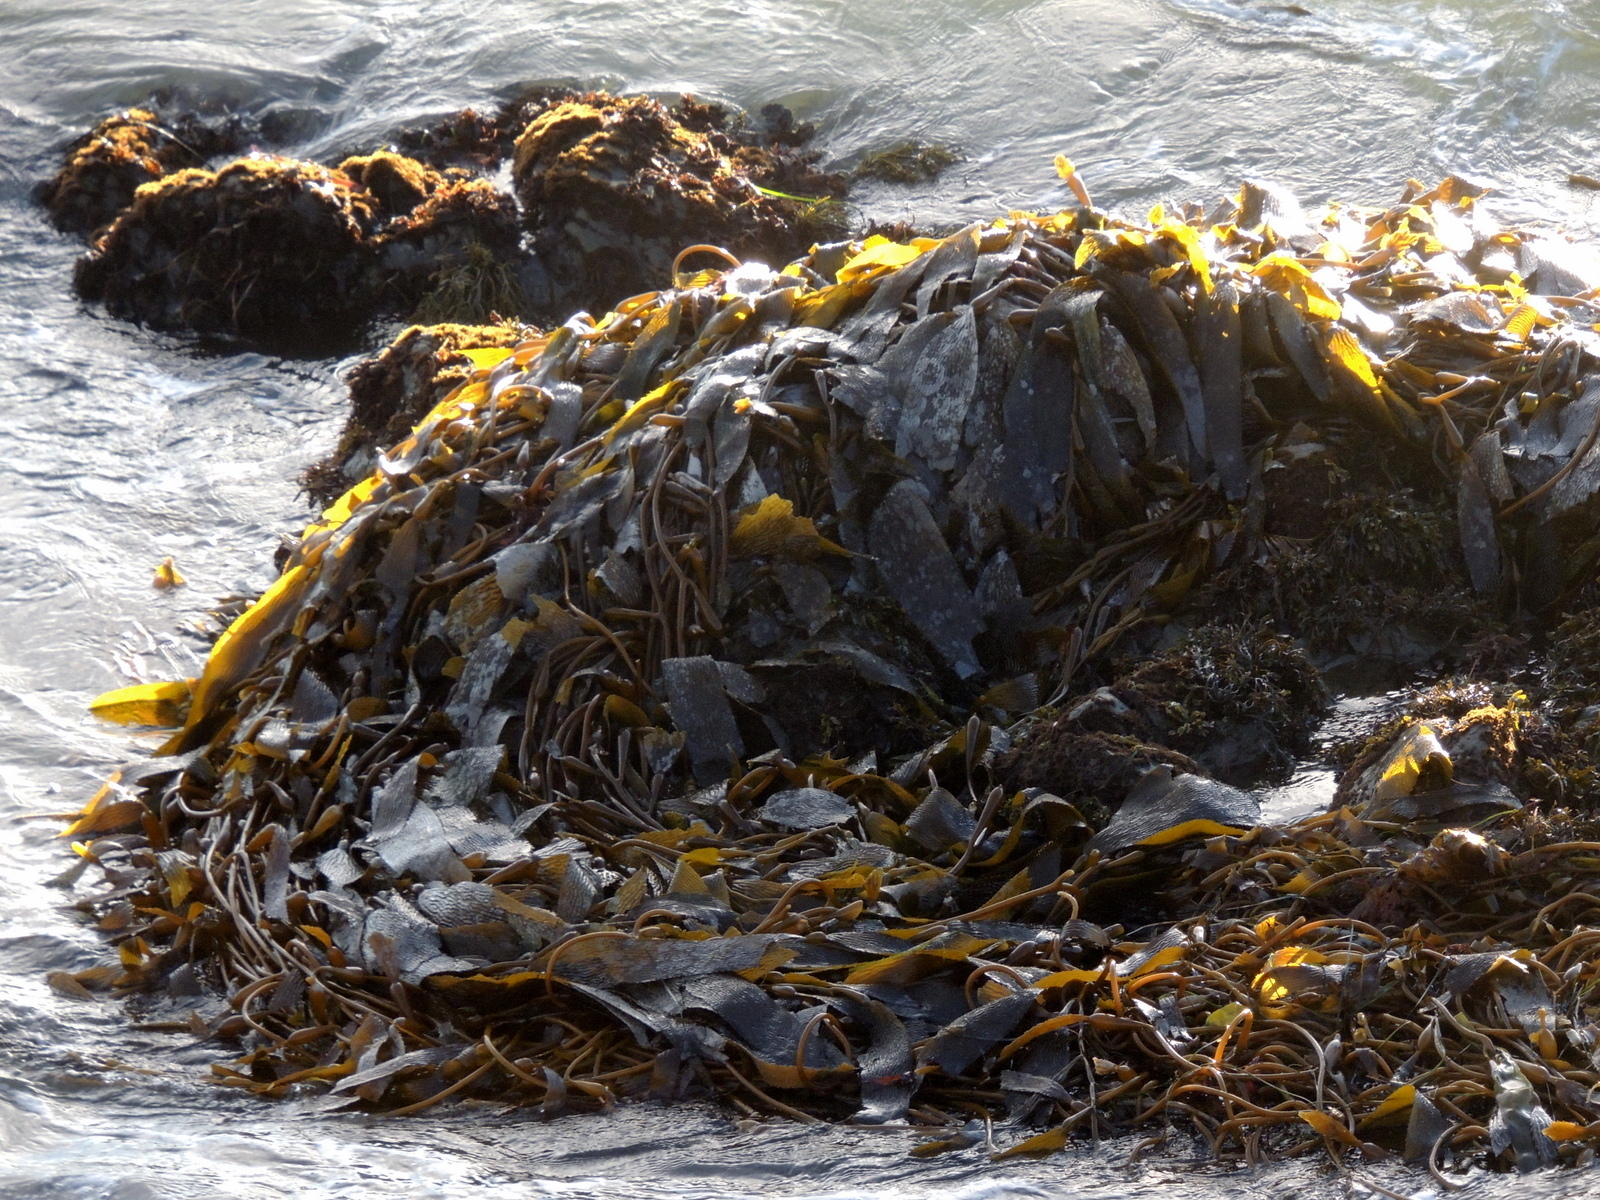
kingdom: Chromista
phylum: Ochrophyta
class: Phaeophyceae
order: Laminariales
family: Laminariaceae
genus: Macrocystis
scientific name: Macrocystis pyrifera
